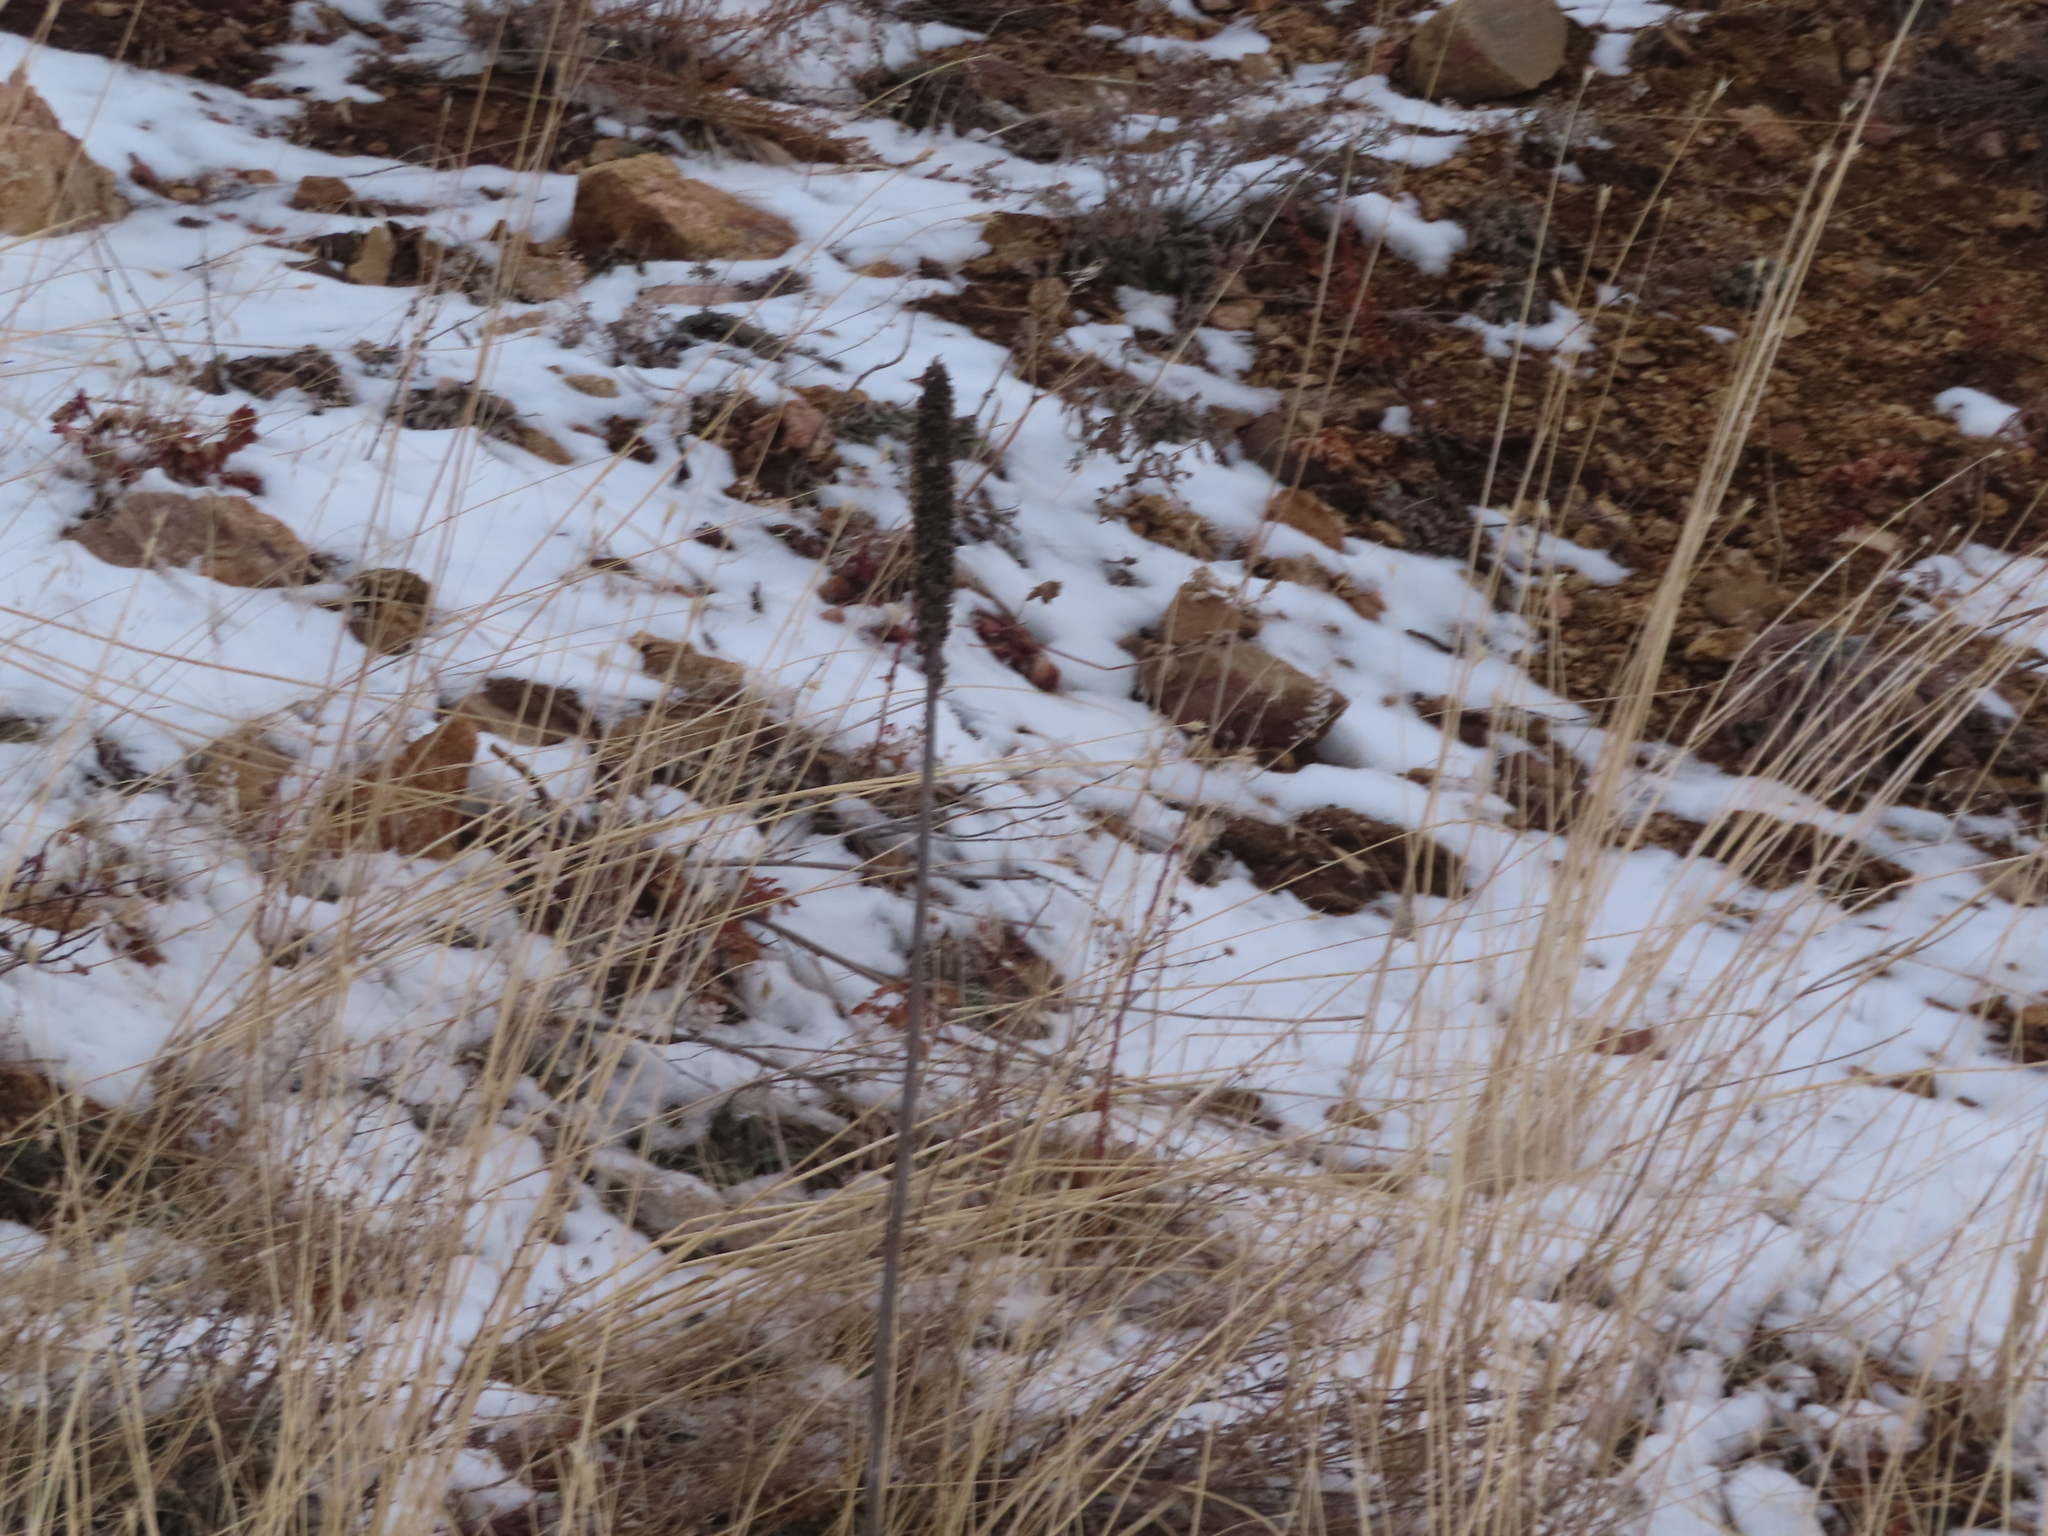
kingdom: Plantae
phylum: Tracheophyta
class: Magnoliopsida
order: Lamiales
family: Scrophulariaceae
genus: Verbascum
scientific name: Verbascum thapsus
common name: Common mullein
